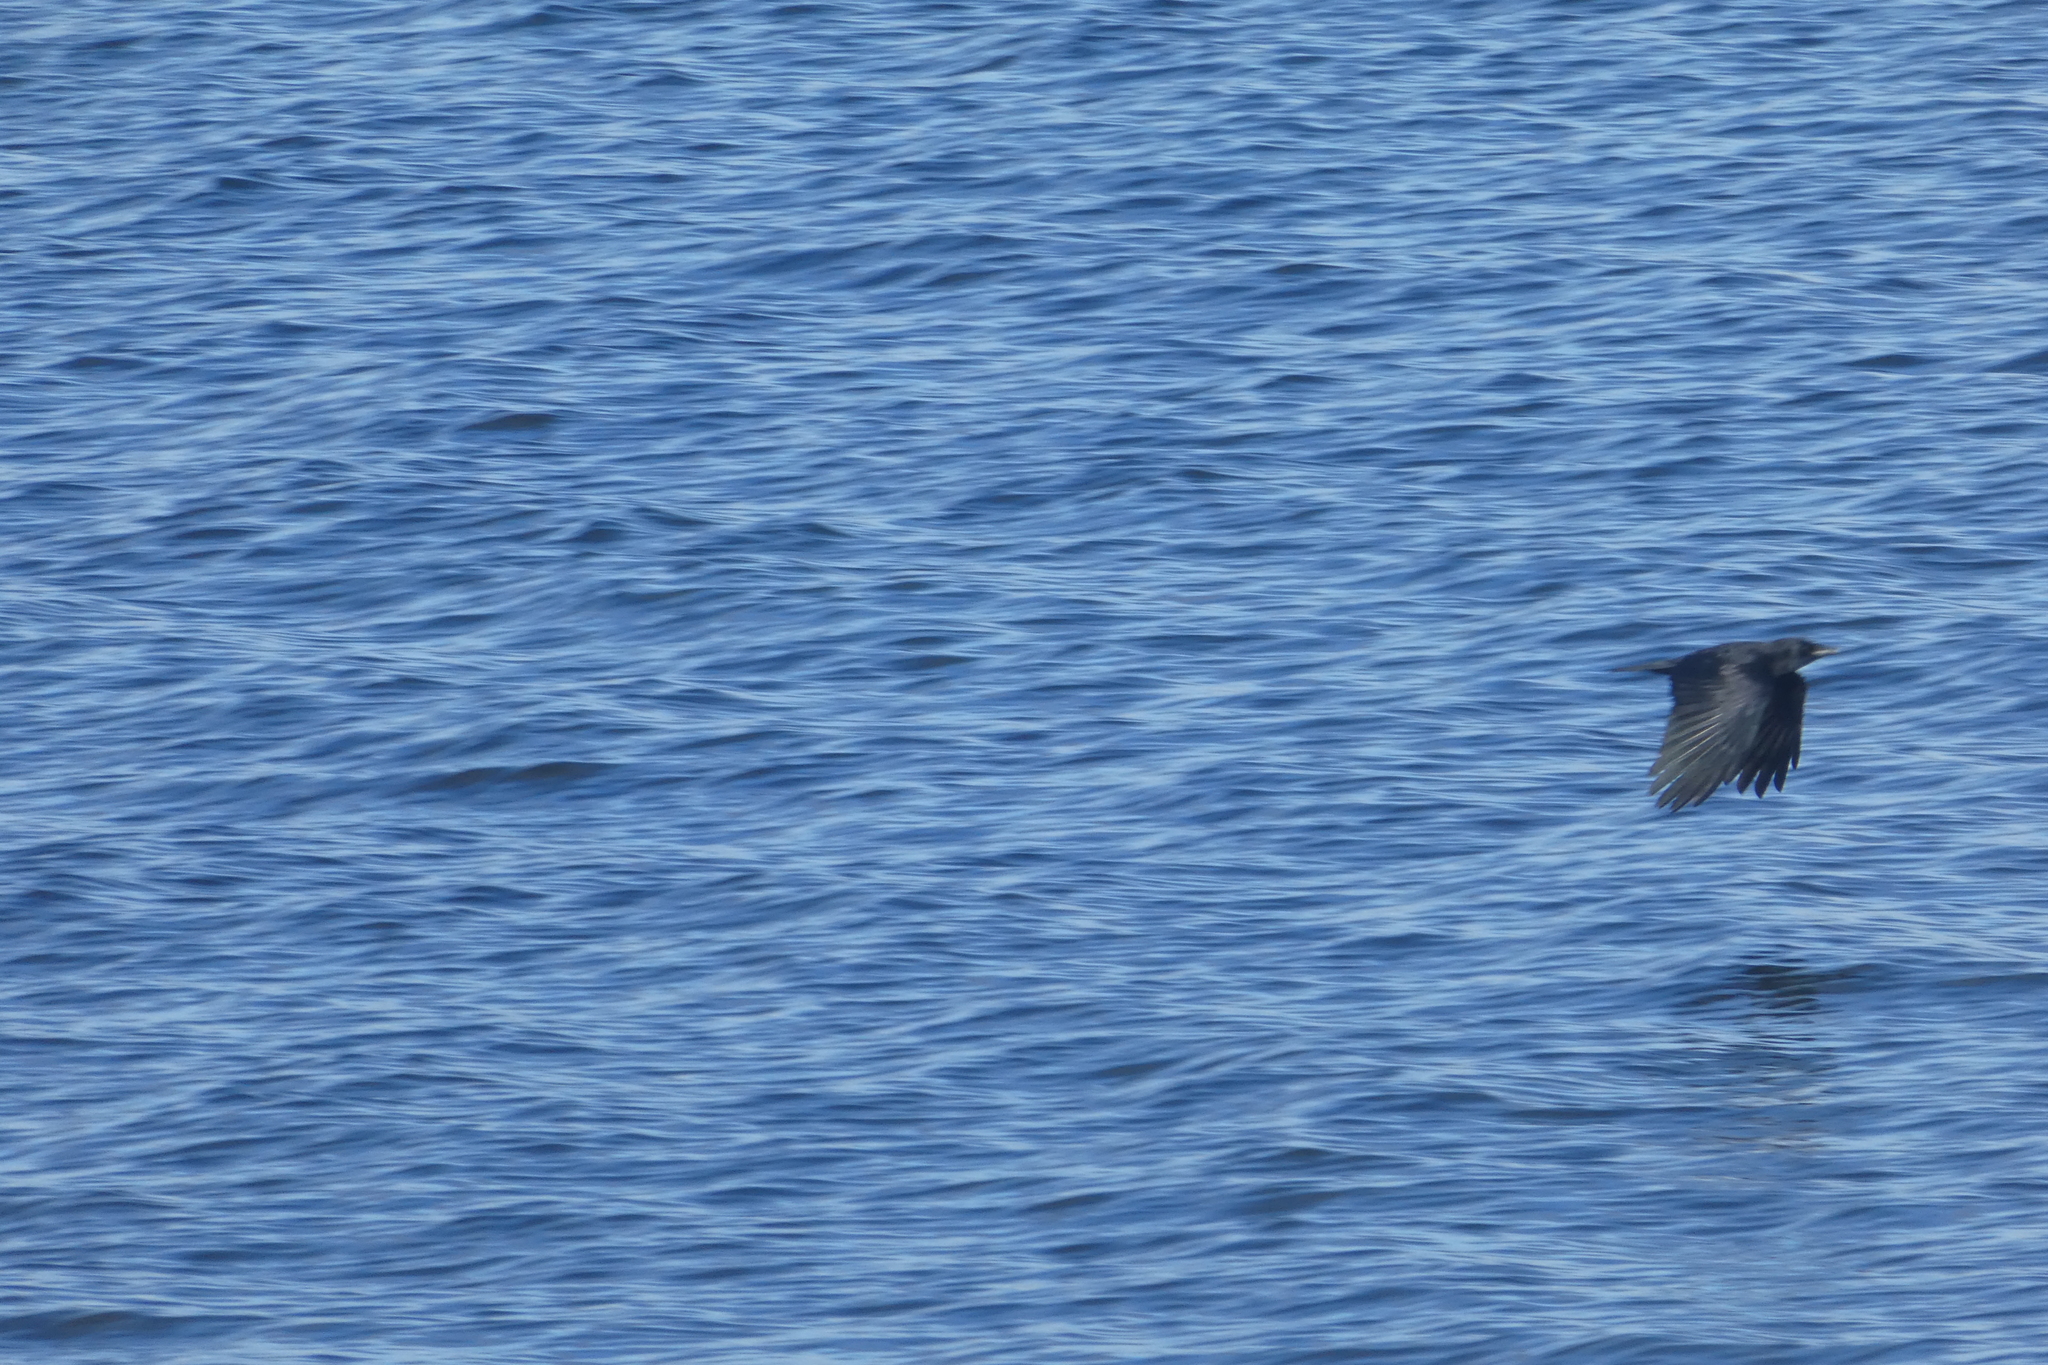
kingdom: Animalia
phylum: Chordata
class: Aves
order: Passeriformes
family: Corvidae
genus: Corvus
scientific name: Corvus brachyrhynchos
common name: American crow
